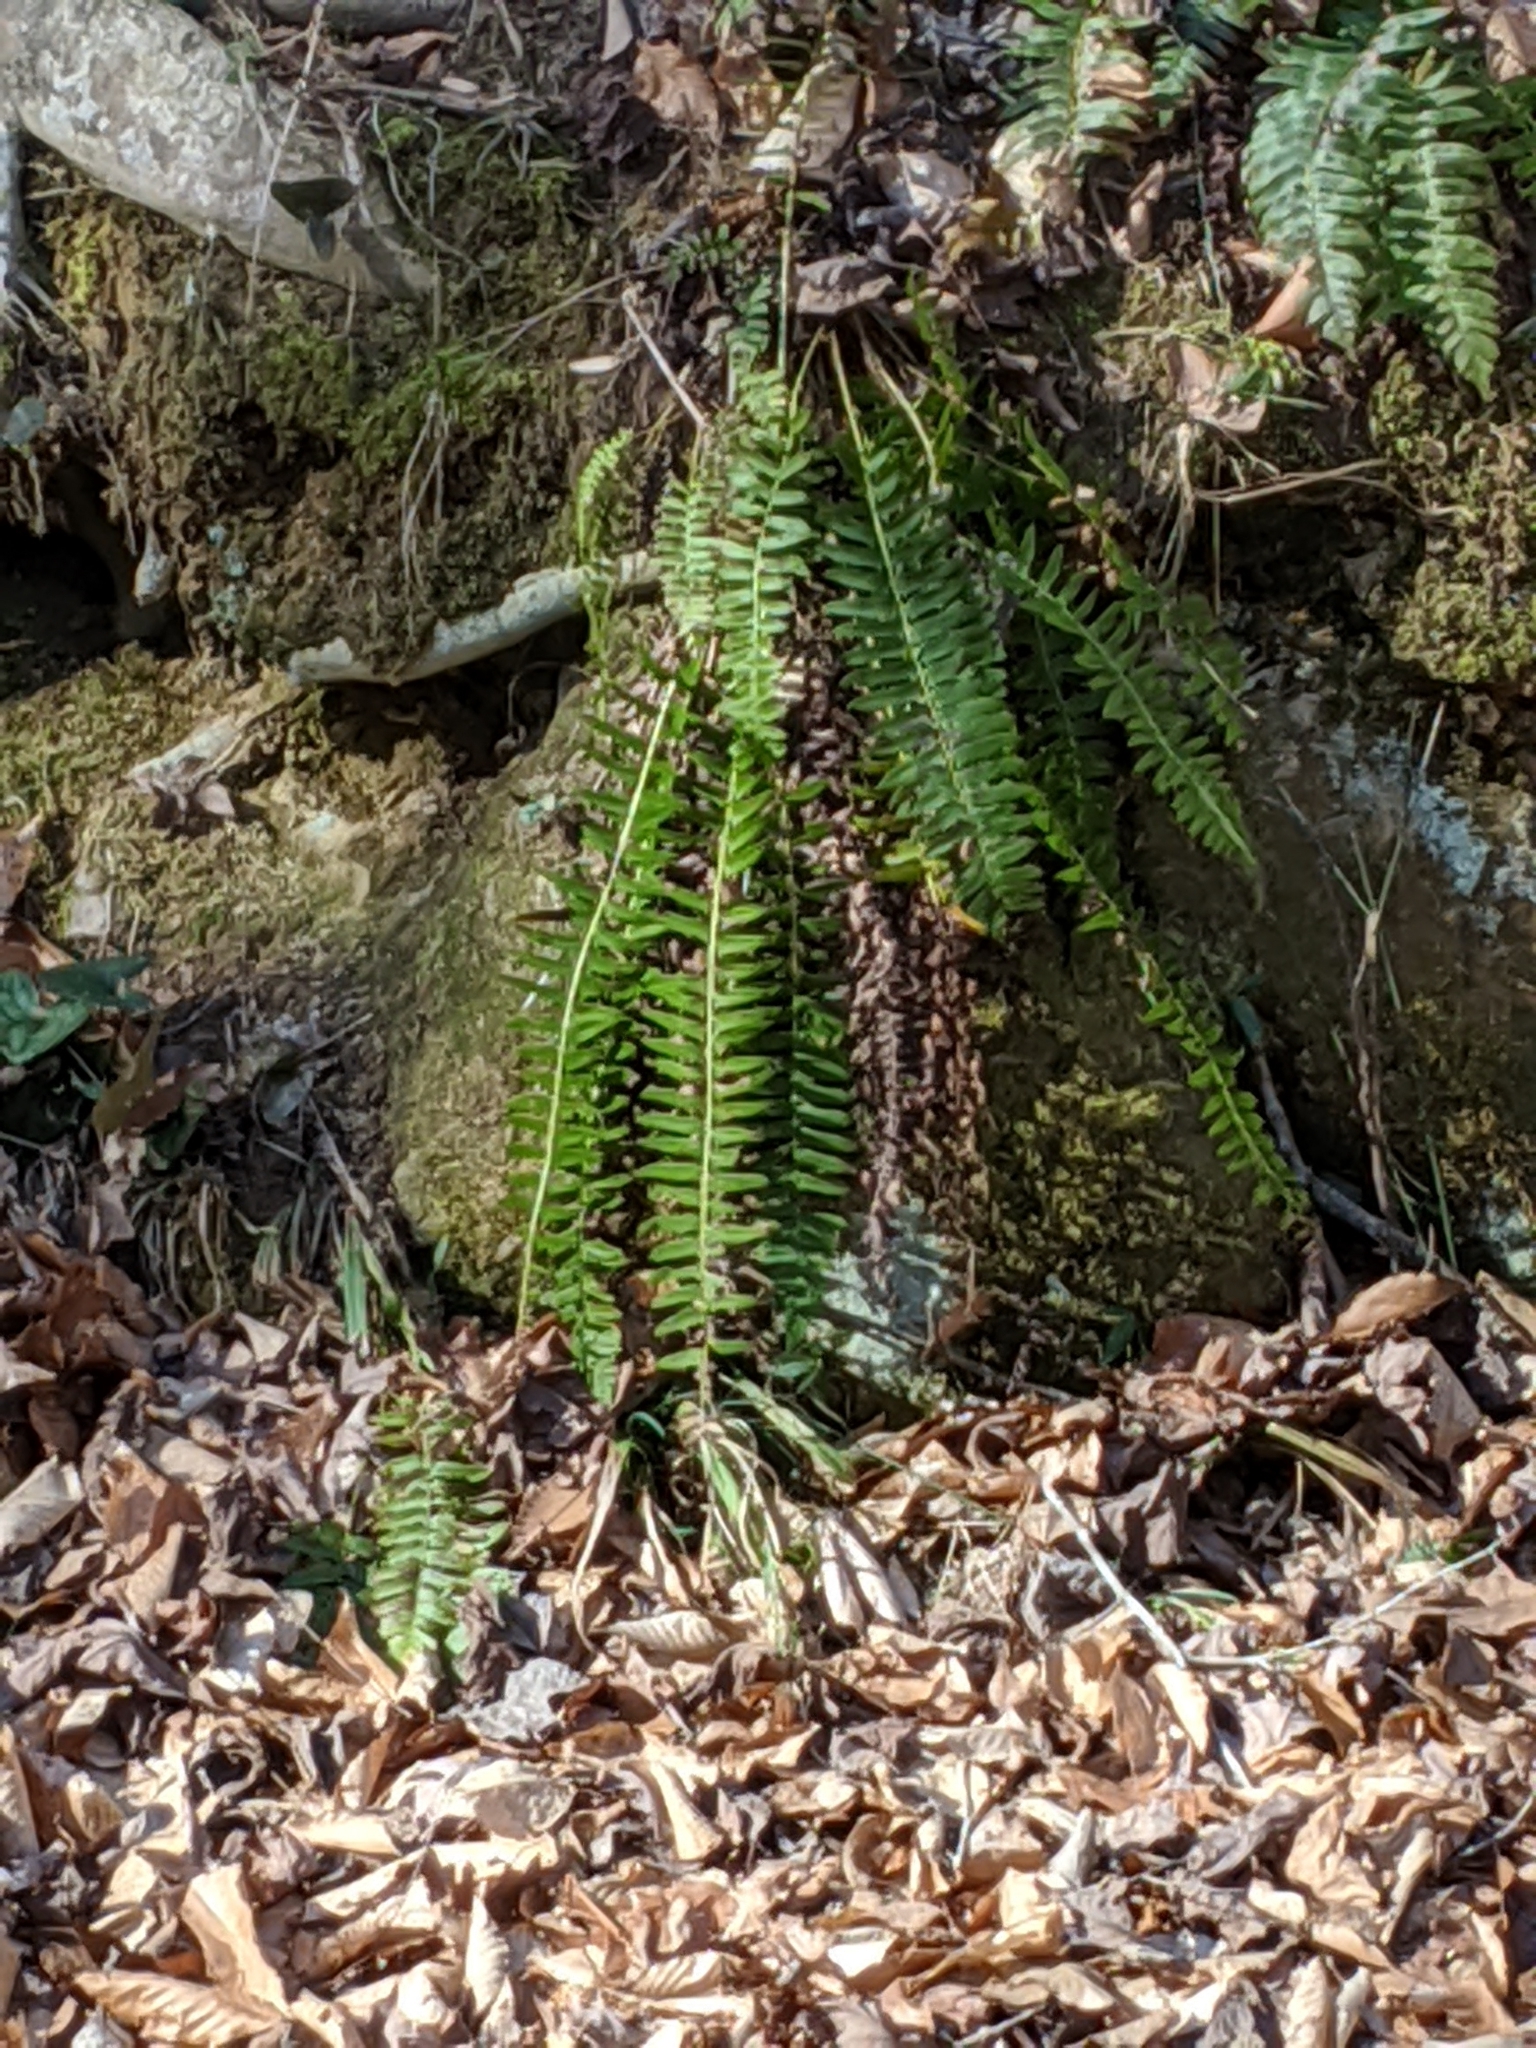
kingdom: Plantae
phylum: Tracheophyta
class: Polypodiopsida
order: Polypodiales
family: Dryopteridaceae
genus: Polystichum
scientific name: Polystichum acrostichoides
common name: Christmas fern
